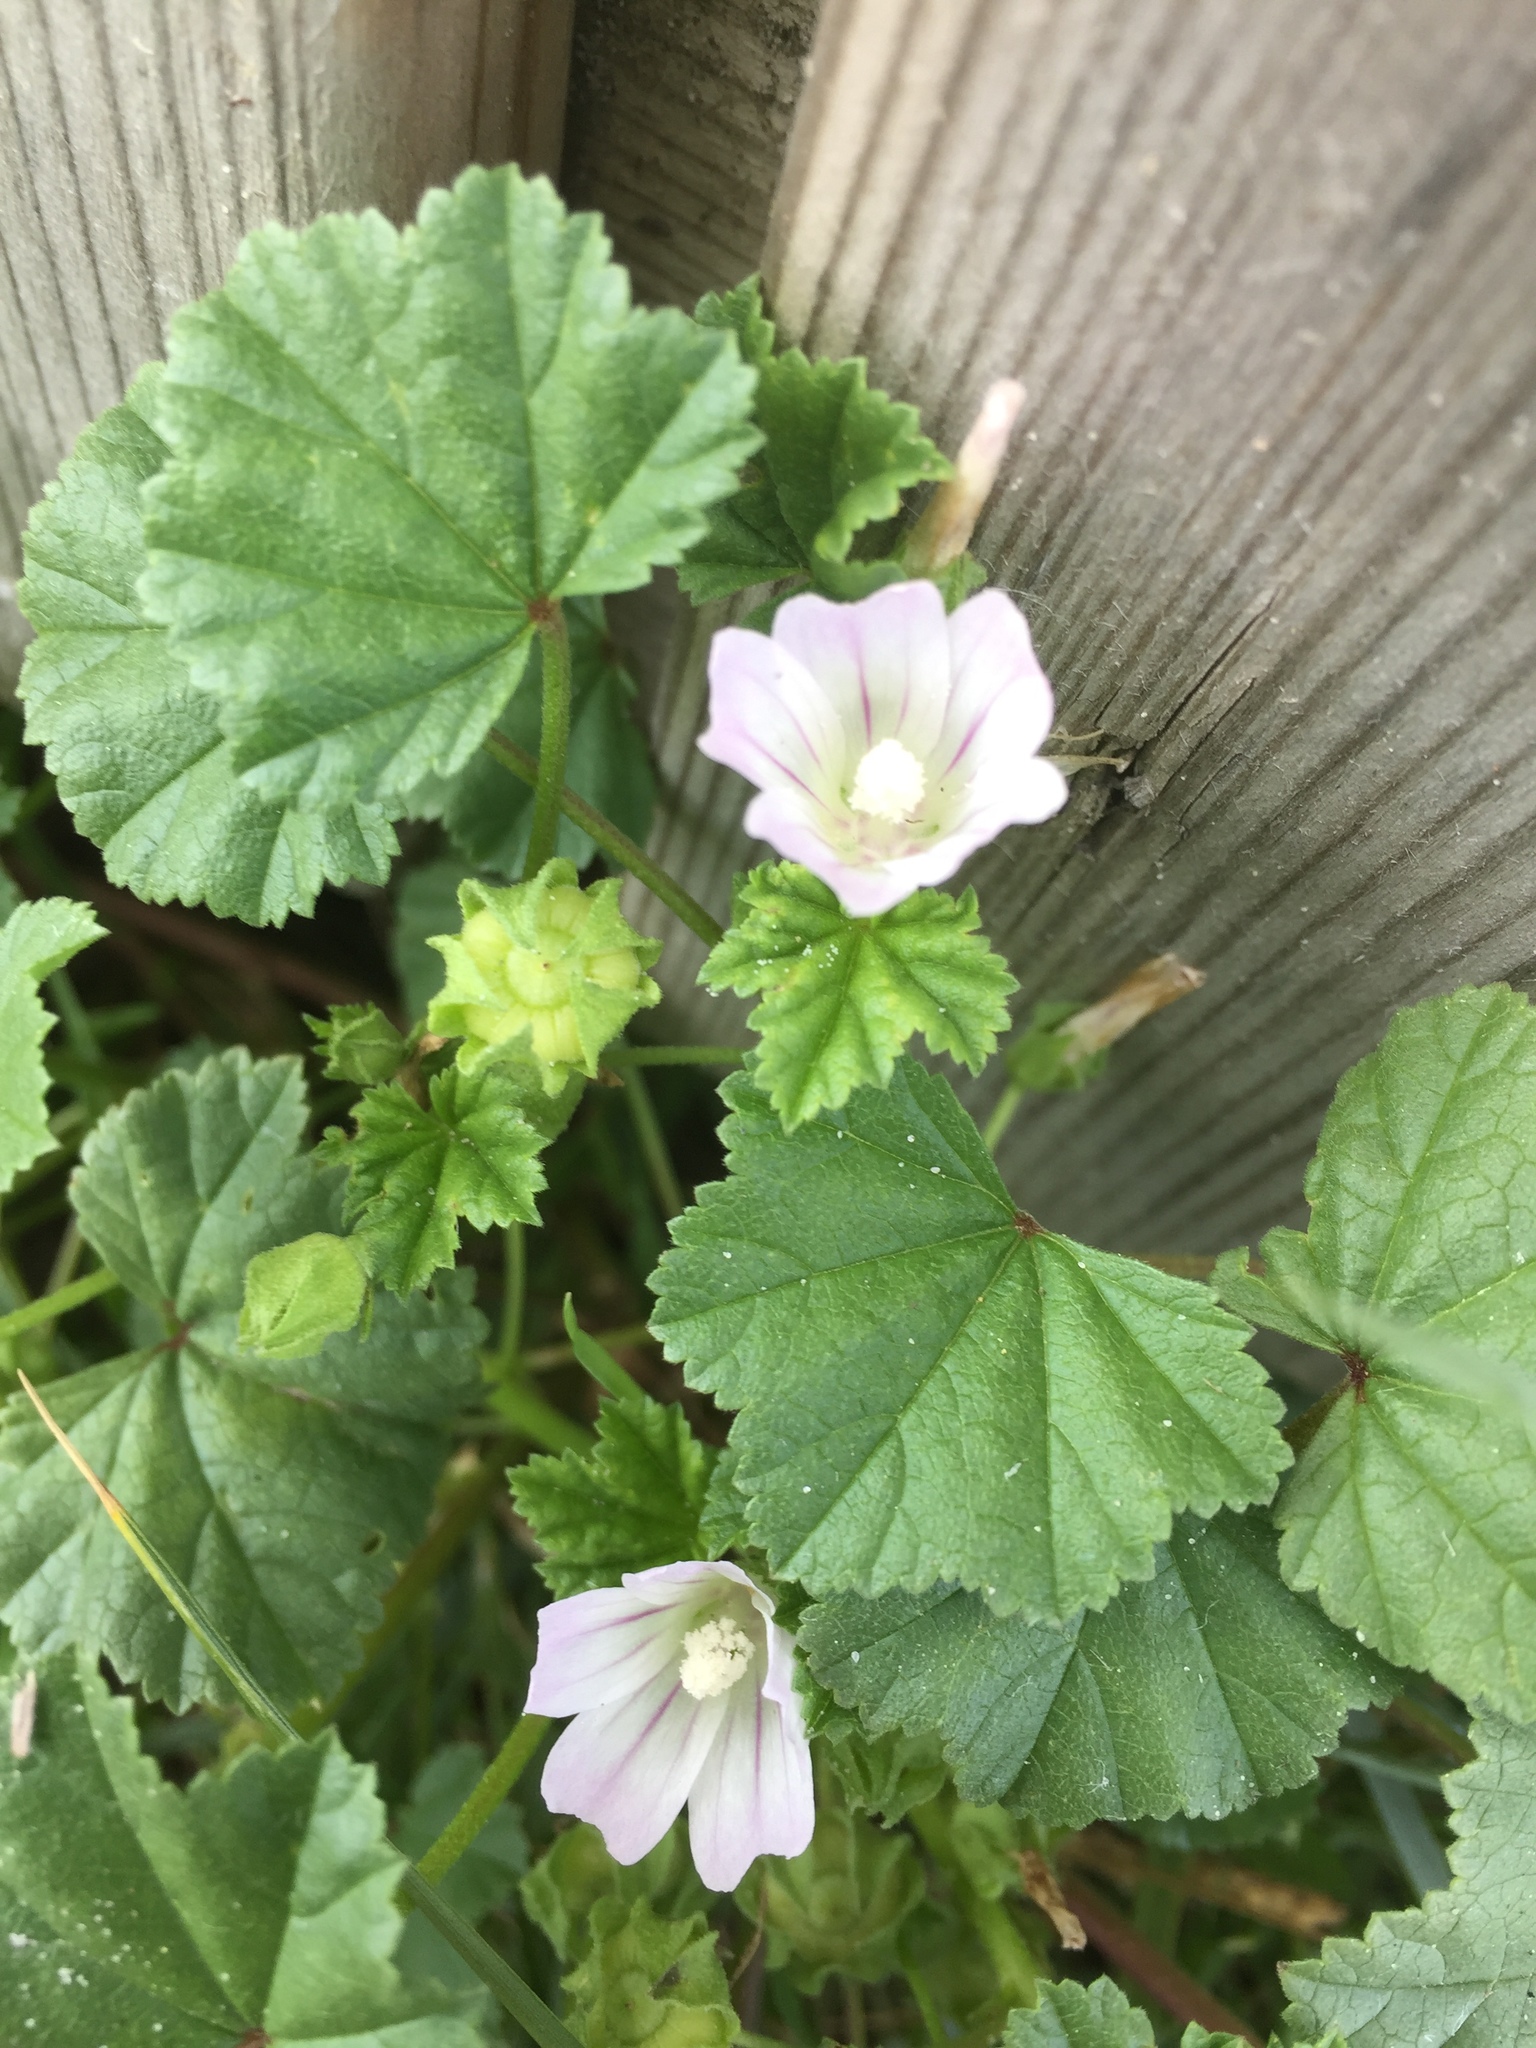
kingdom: Plantae
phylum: Tracheophyta
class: Magnoliopsida
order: Malvales
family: Malvaceae
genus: Malva
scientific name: Malva neglecta
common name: Common mallow
